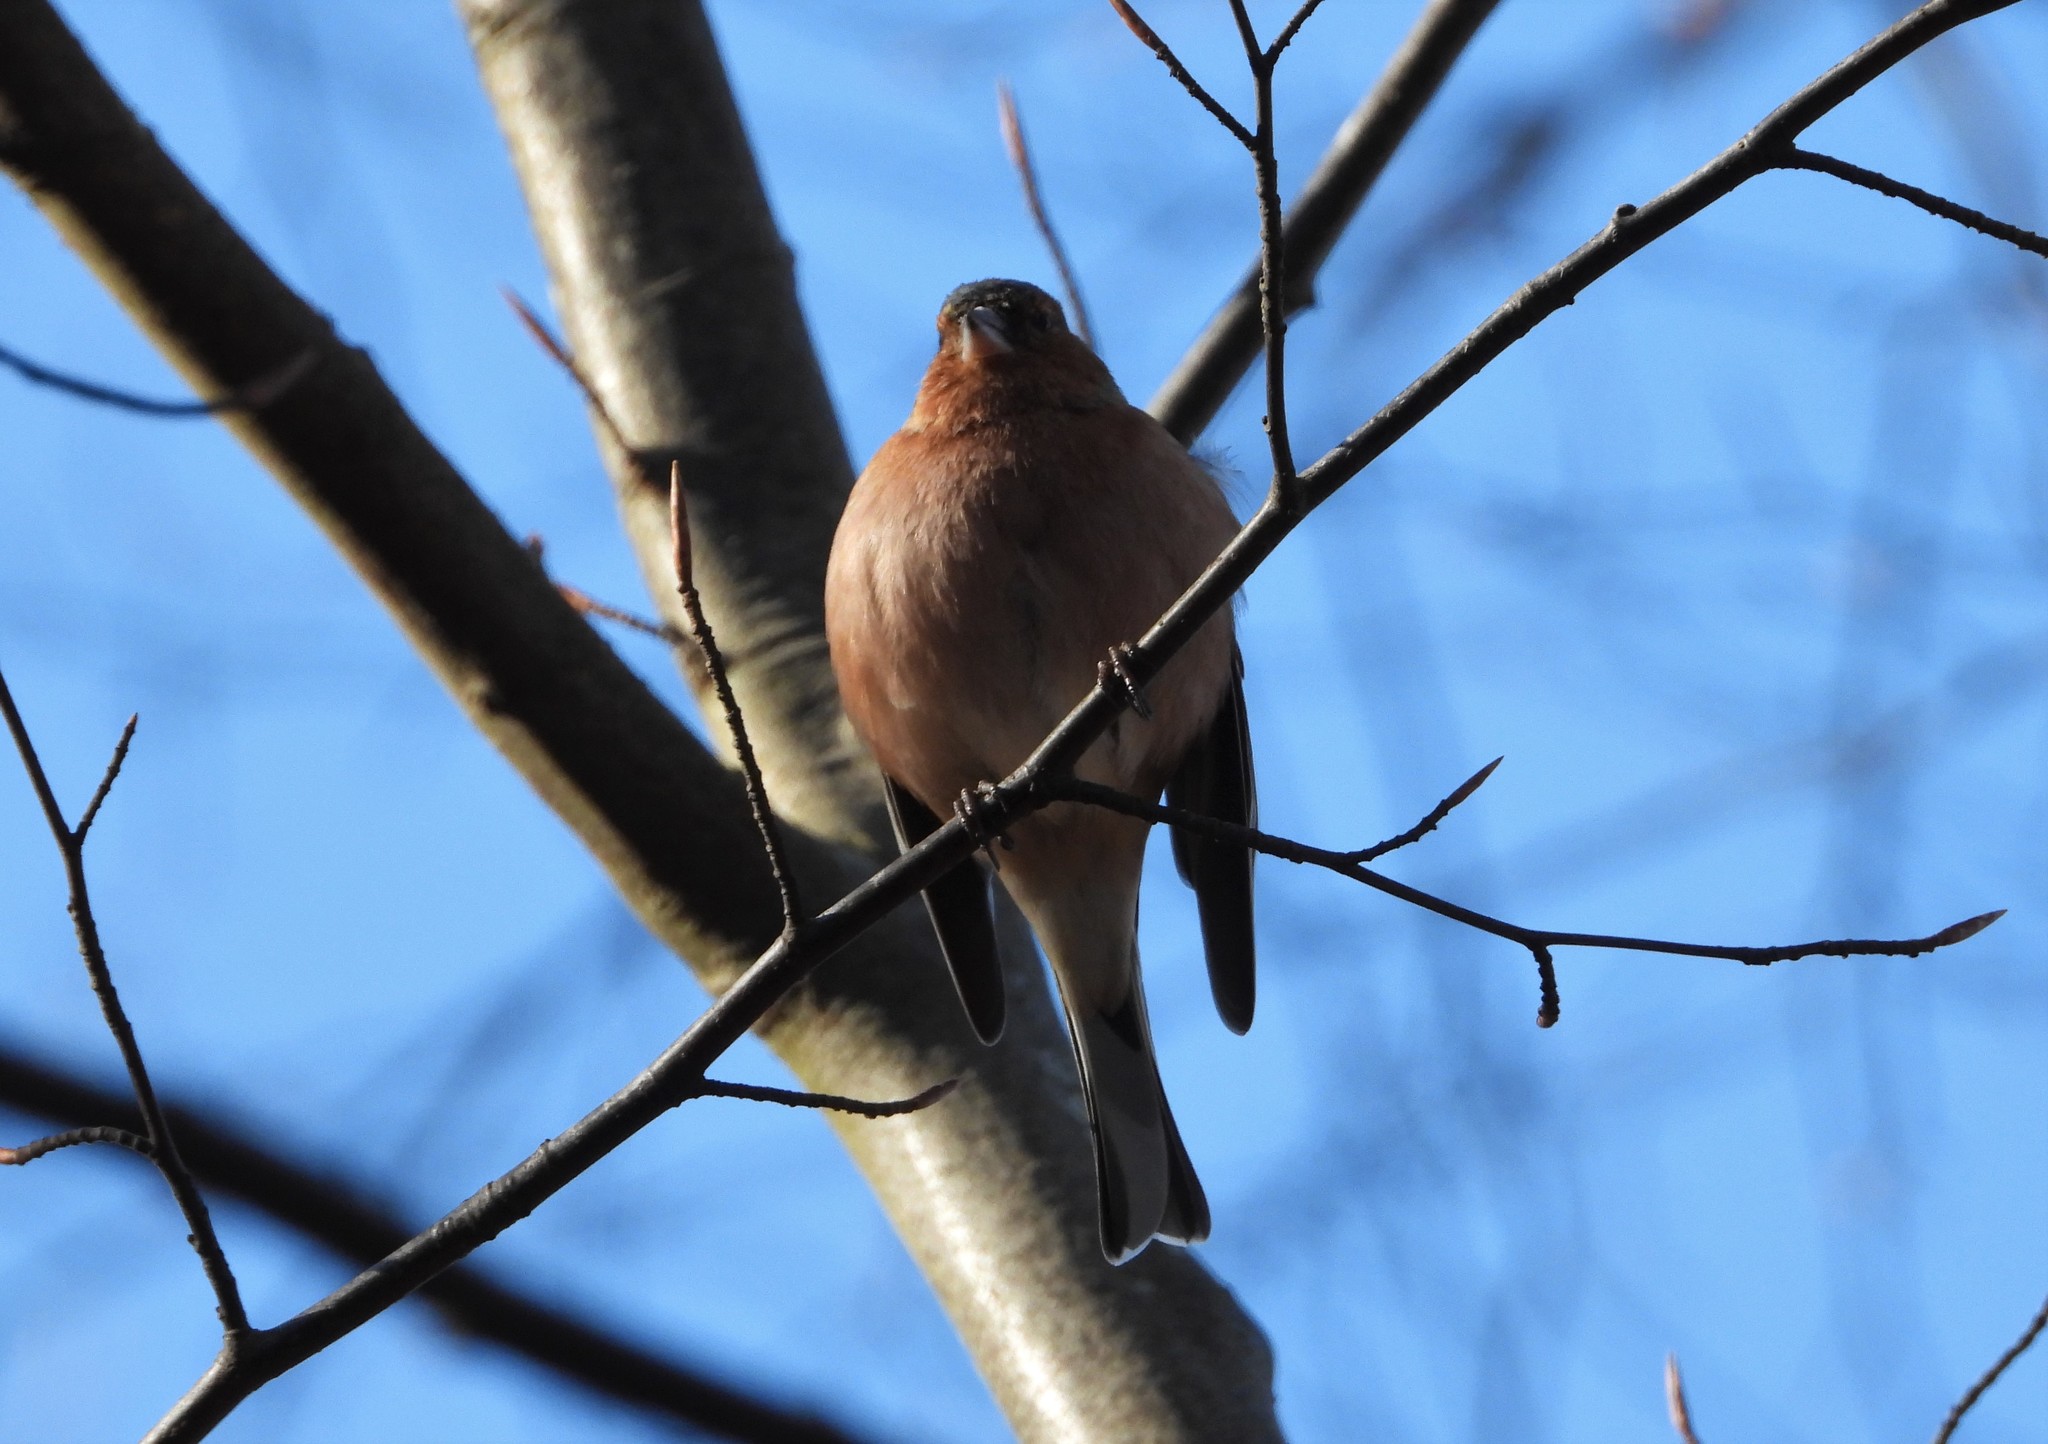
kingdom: Animalia
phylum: Chordata
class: Aves
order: Passeriformes
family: Fringillidae
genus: Fringilla
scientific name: Fringilla coelebs
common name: Common chaffinch
